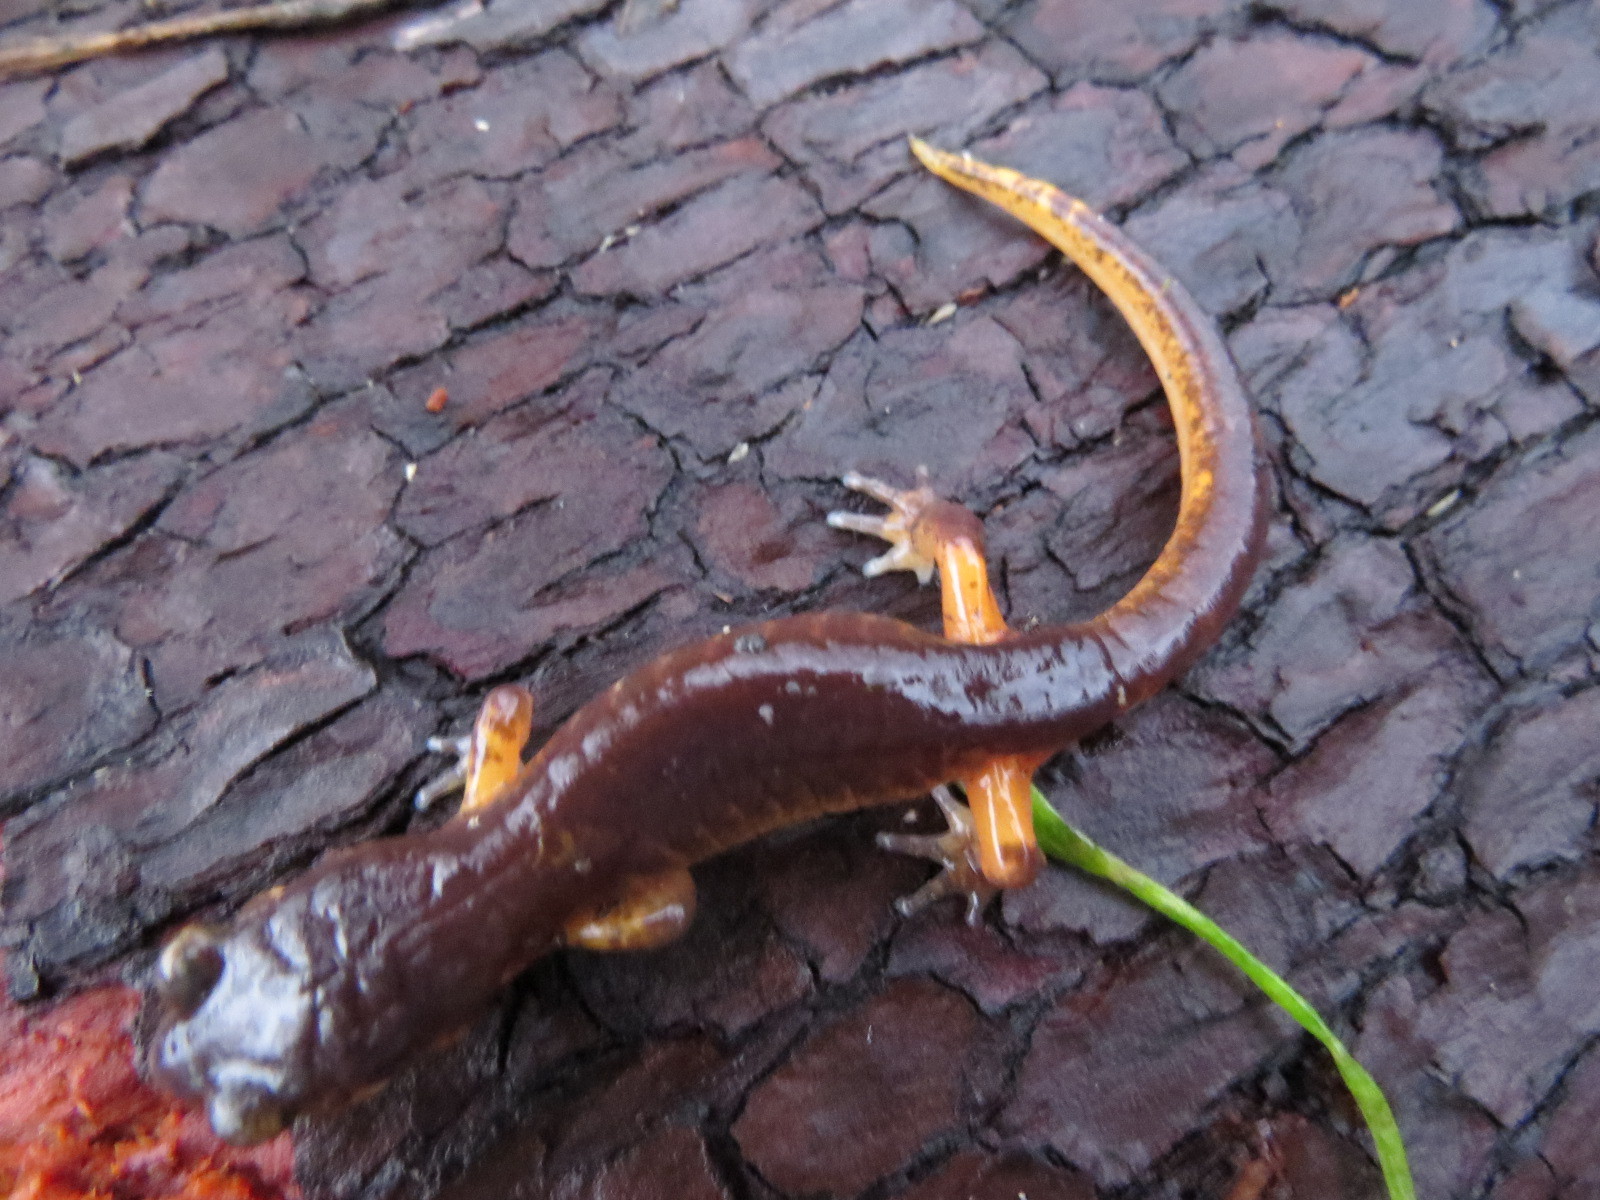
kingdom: Animalia
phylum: Chordata
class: Amphibia
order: Caudata
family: Plethodontidae
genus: Ensatina
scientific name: Ensatina eschscholtzii
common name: Ensatina
